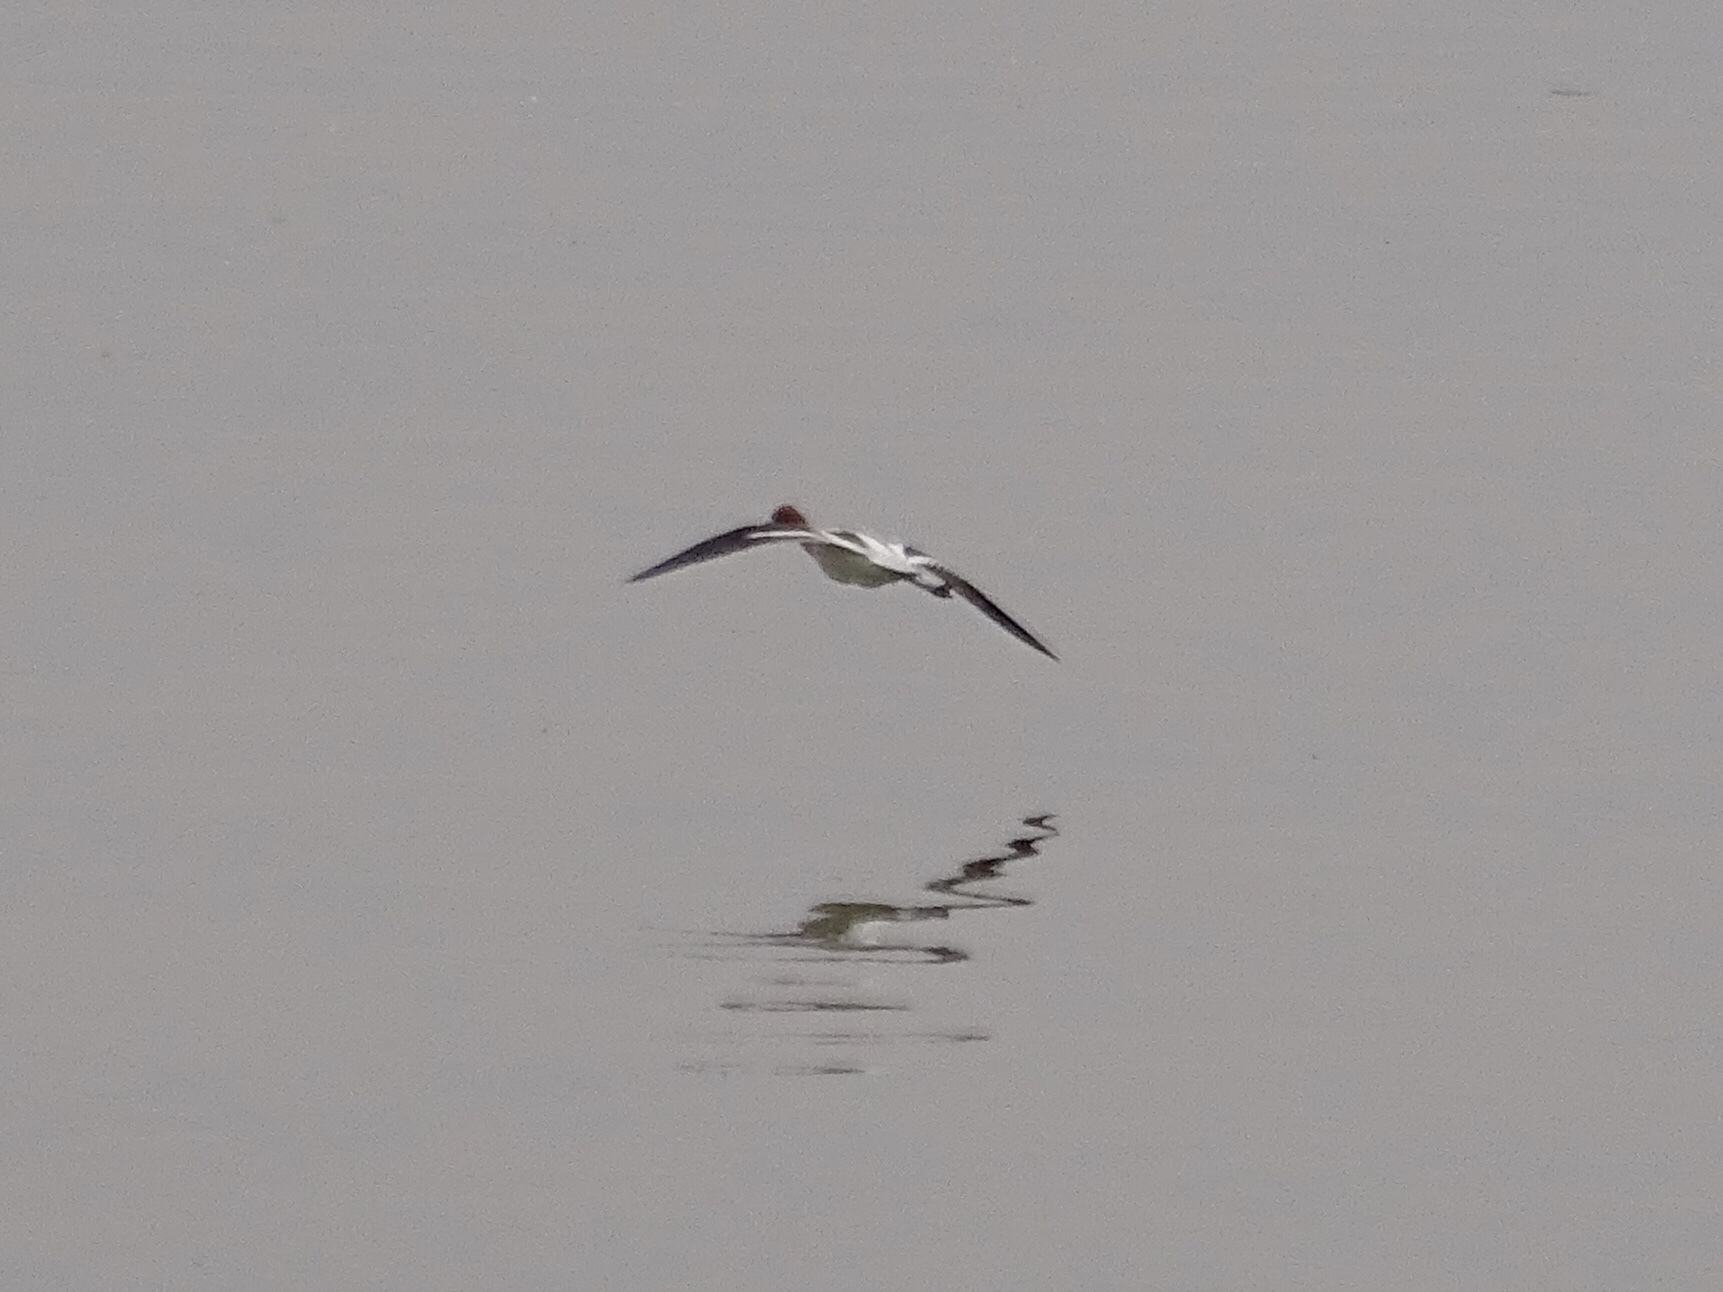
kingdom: Animalia
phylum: Chordata
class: Aves
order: Charadriiformes
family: Recurvirostridae
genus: Recurvirostra
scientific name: Recurvirostra americana
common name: American avocet
